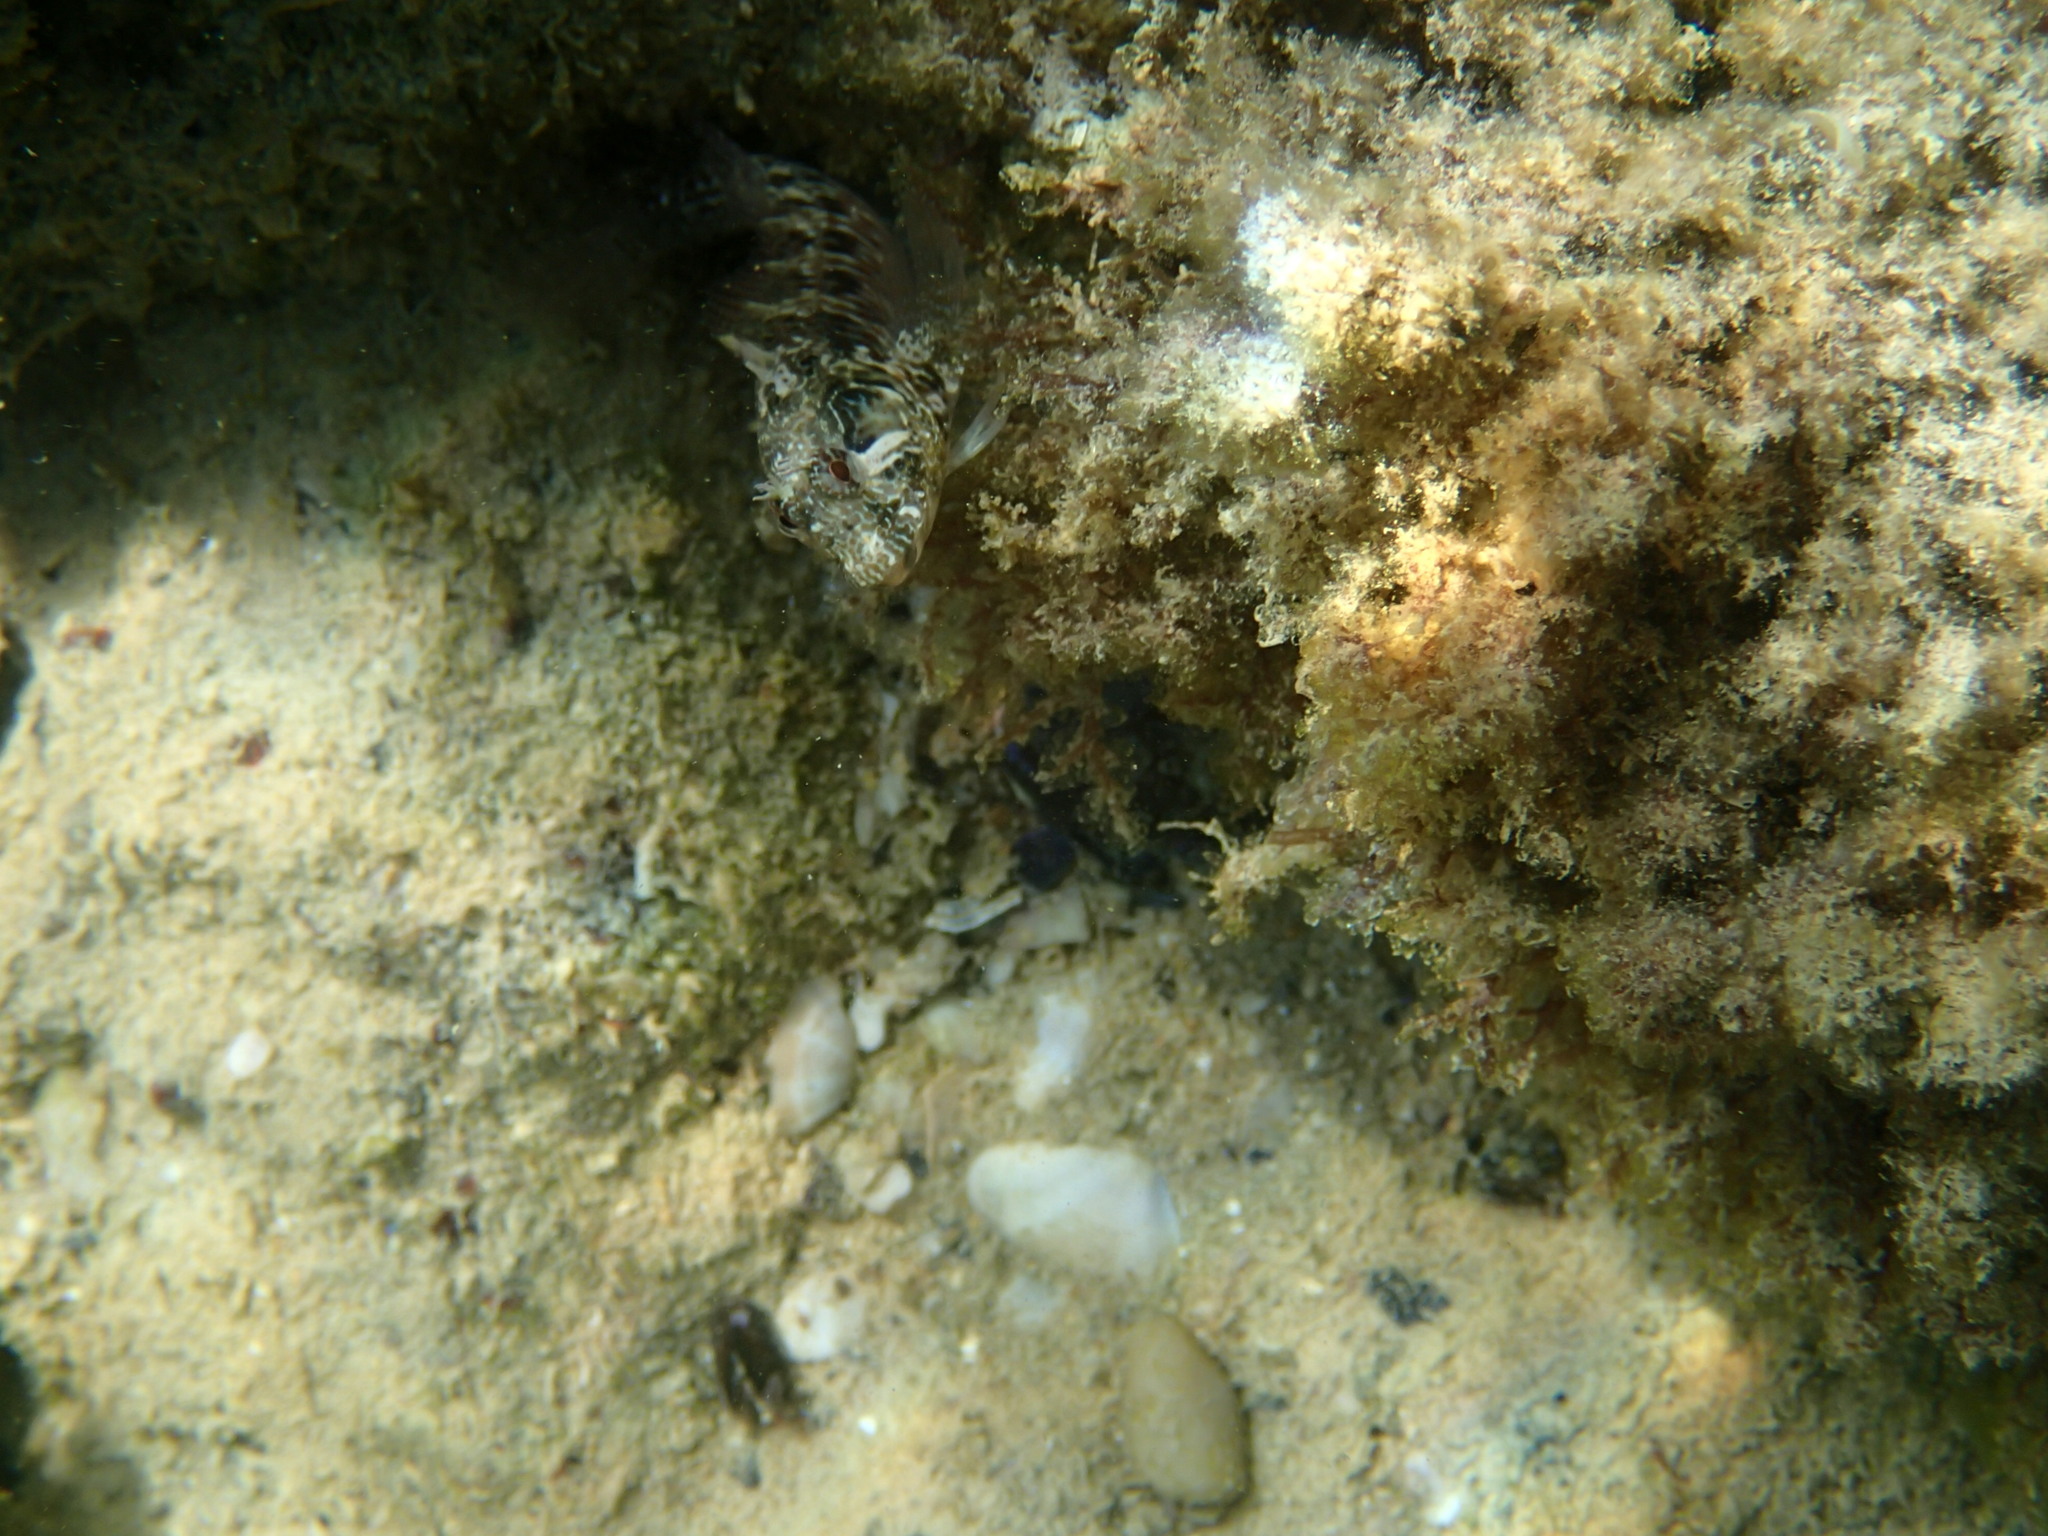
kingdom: Animalia
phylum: Chordata
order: Perciformes
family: Blenniidae
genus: Parablennius
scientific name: Parablennius incognitus
